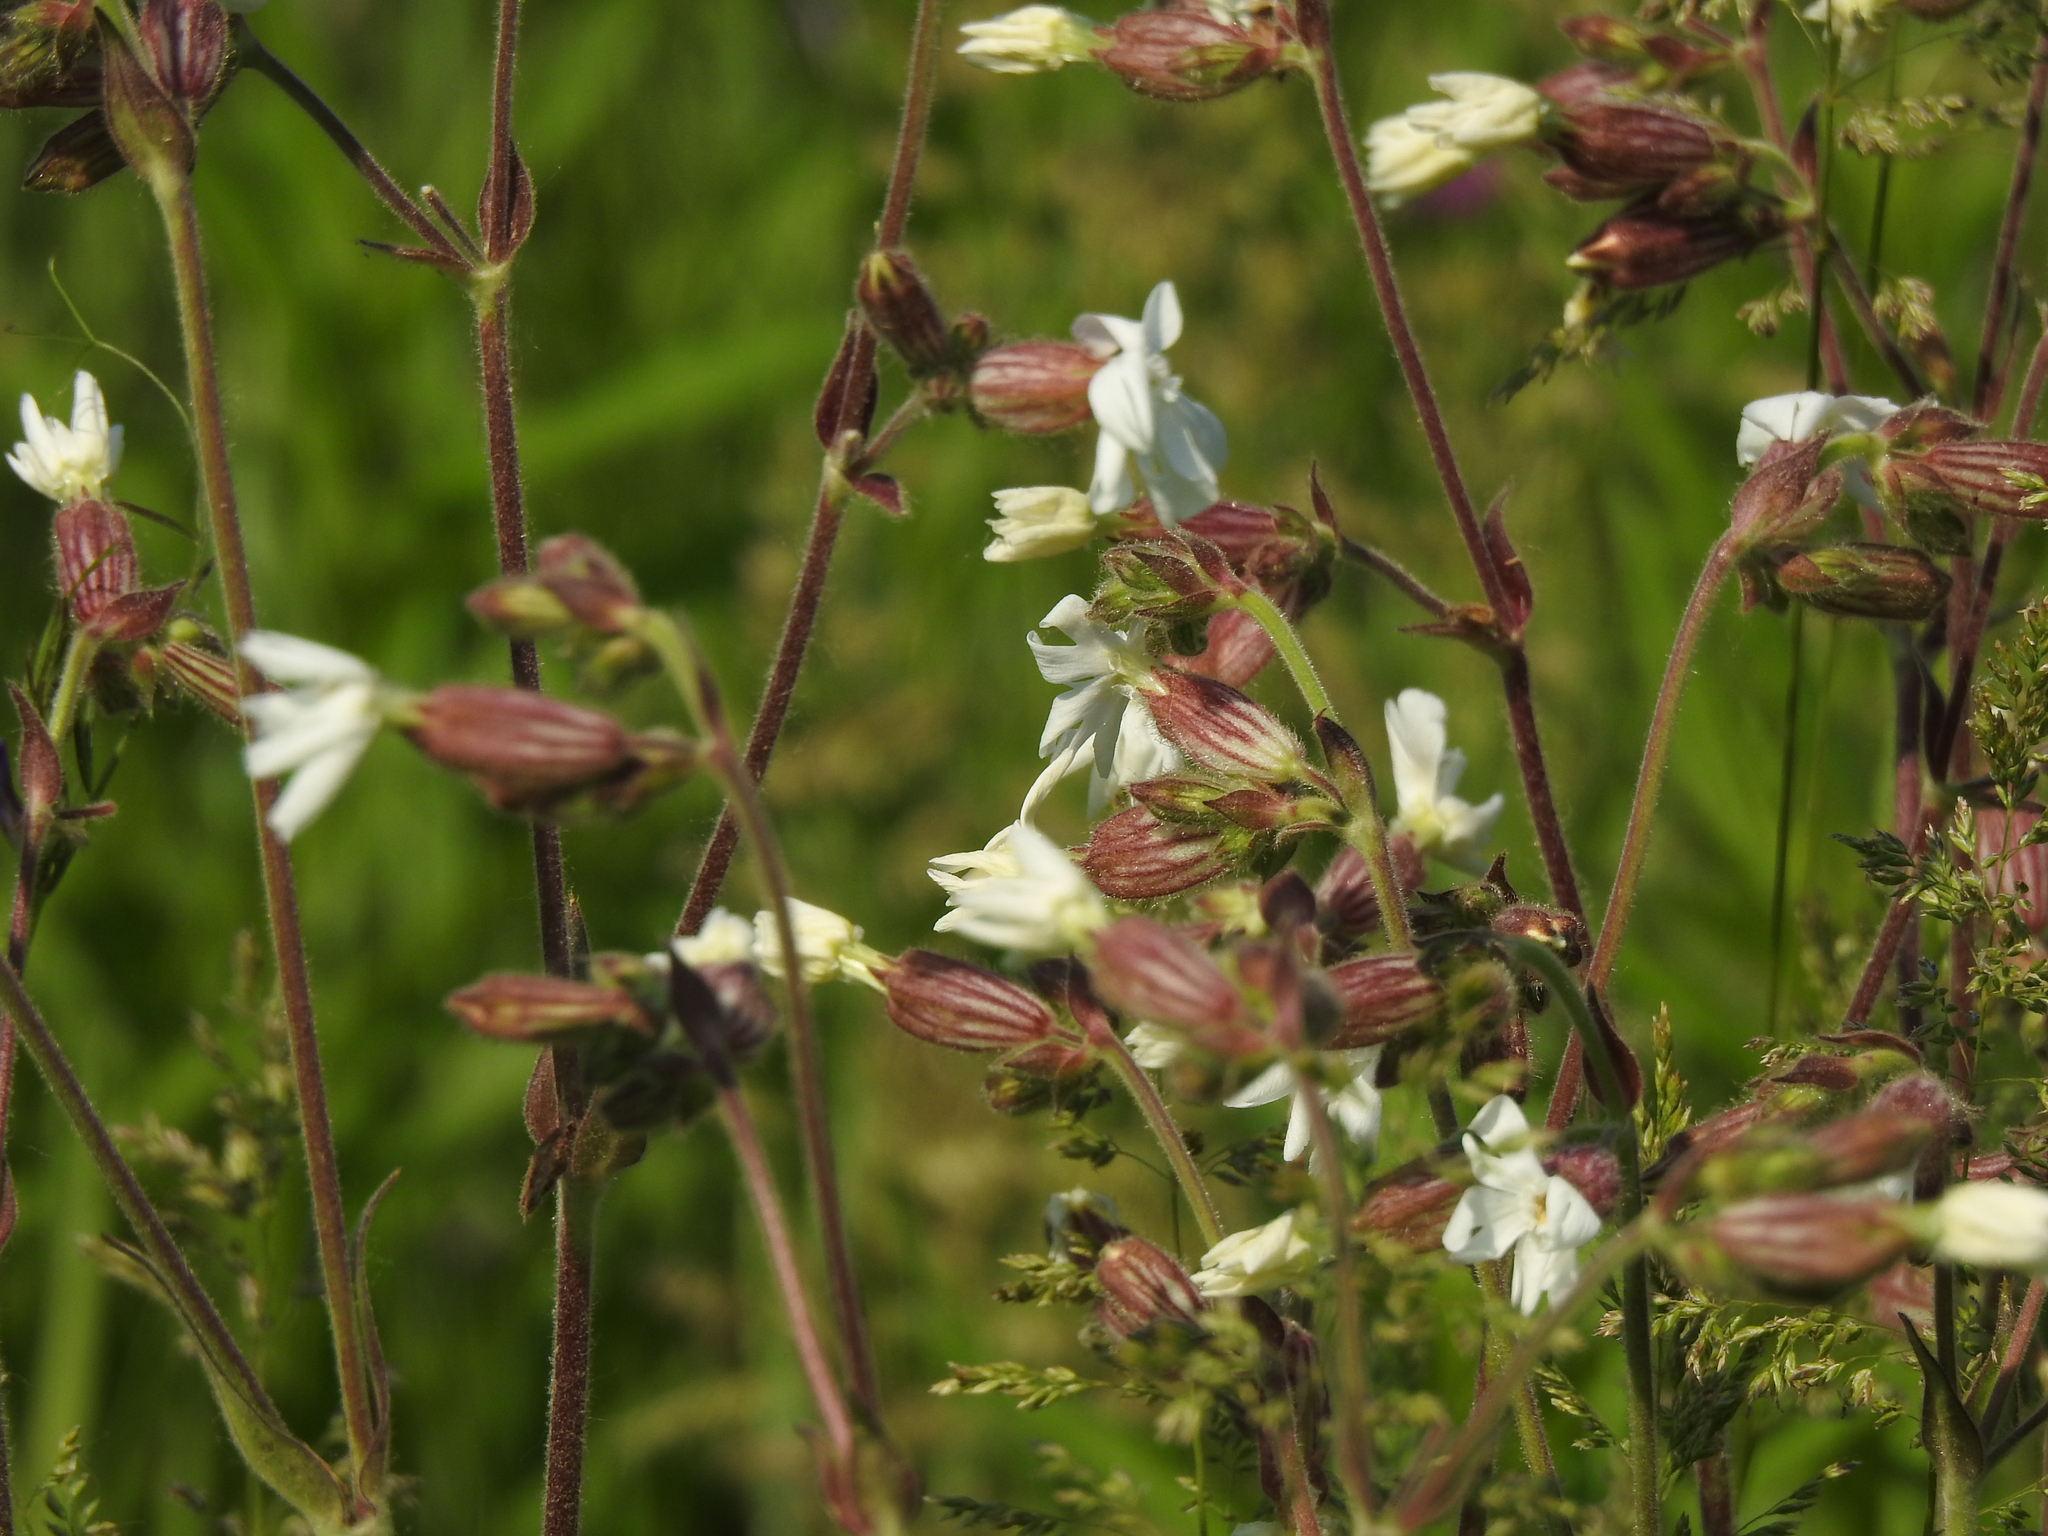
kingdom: Plantae
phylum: Tracheophyta
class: Magnoliopsida
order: Caryophyllales
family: Caryophyllaceae
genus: Silene
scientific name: Silene latifolia
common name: White campion
